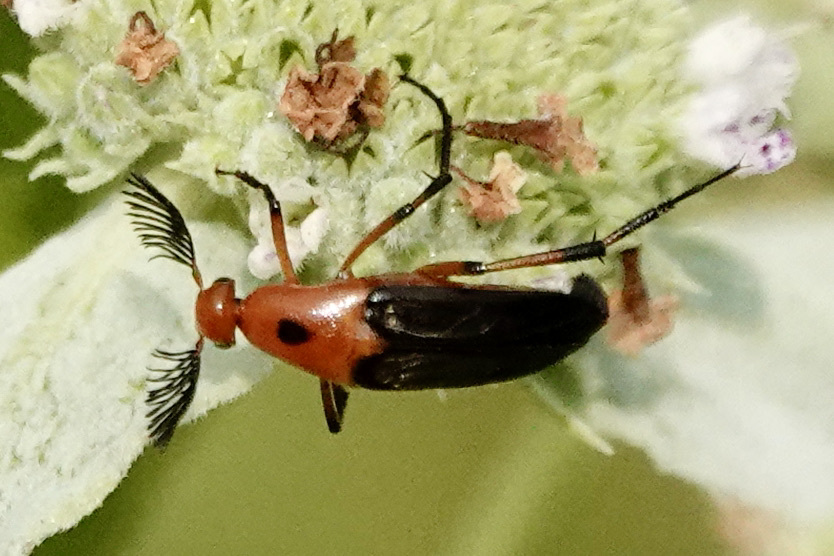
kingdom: Animalia
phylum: Arthropoda
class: Insecta
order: Coleoptera
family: Ripiphoridae
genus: Macrosiagon
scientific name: Macrosiagon limbatum
